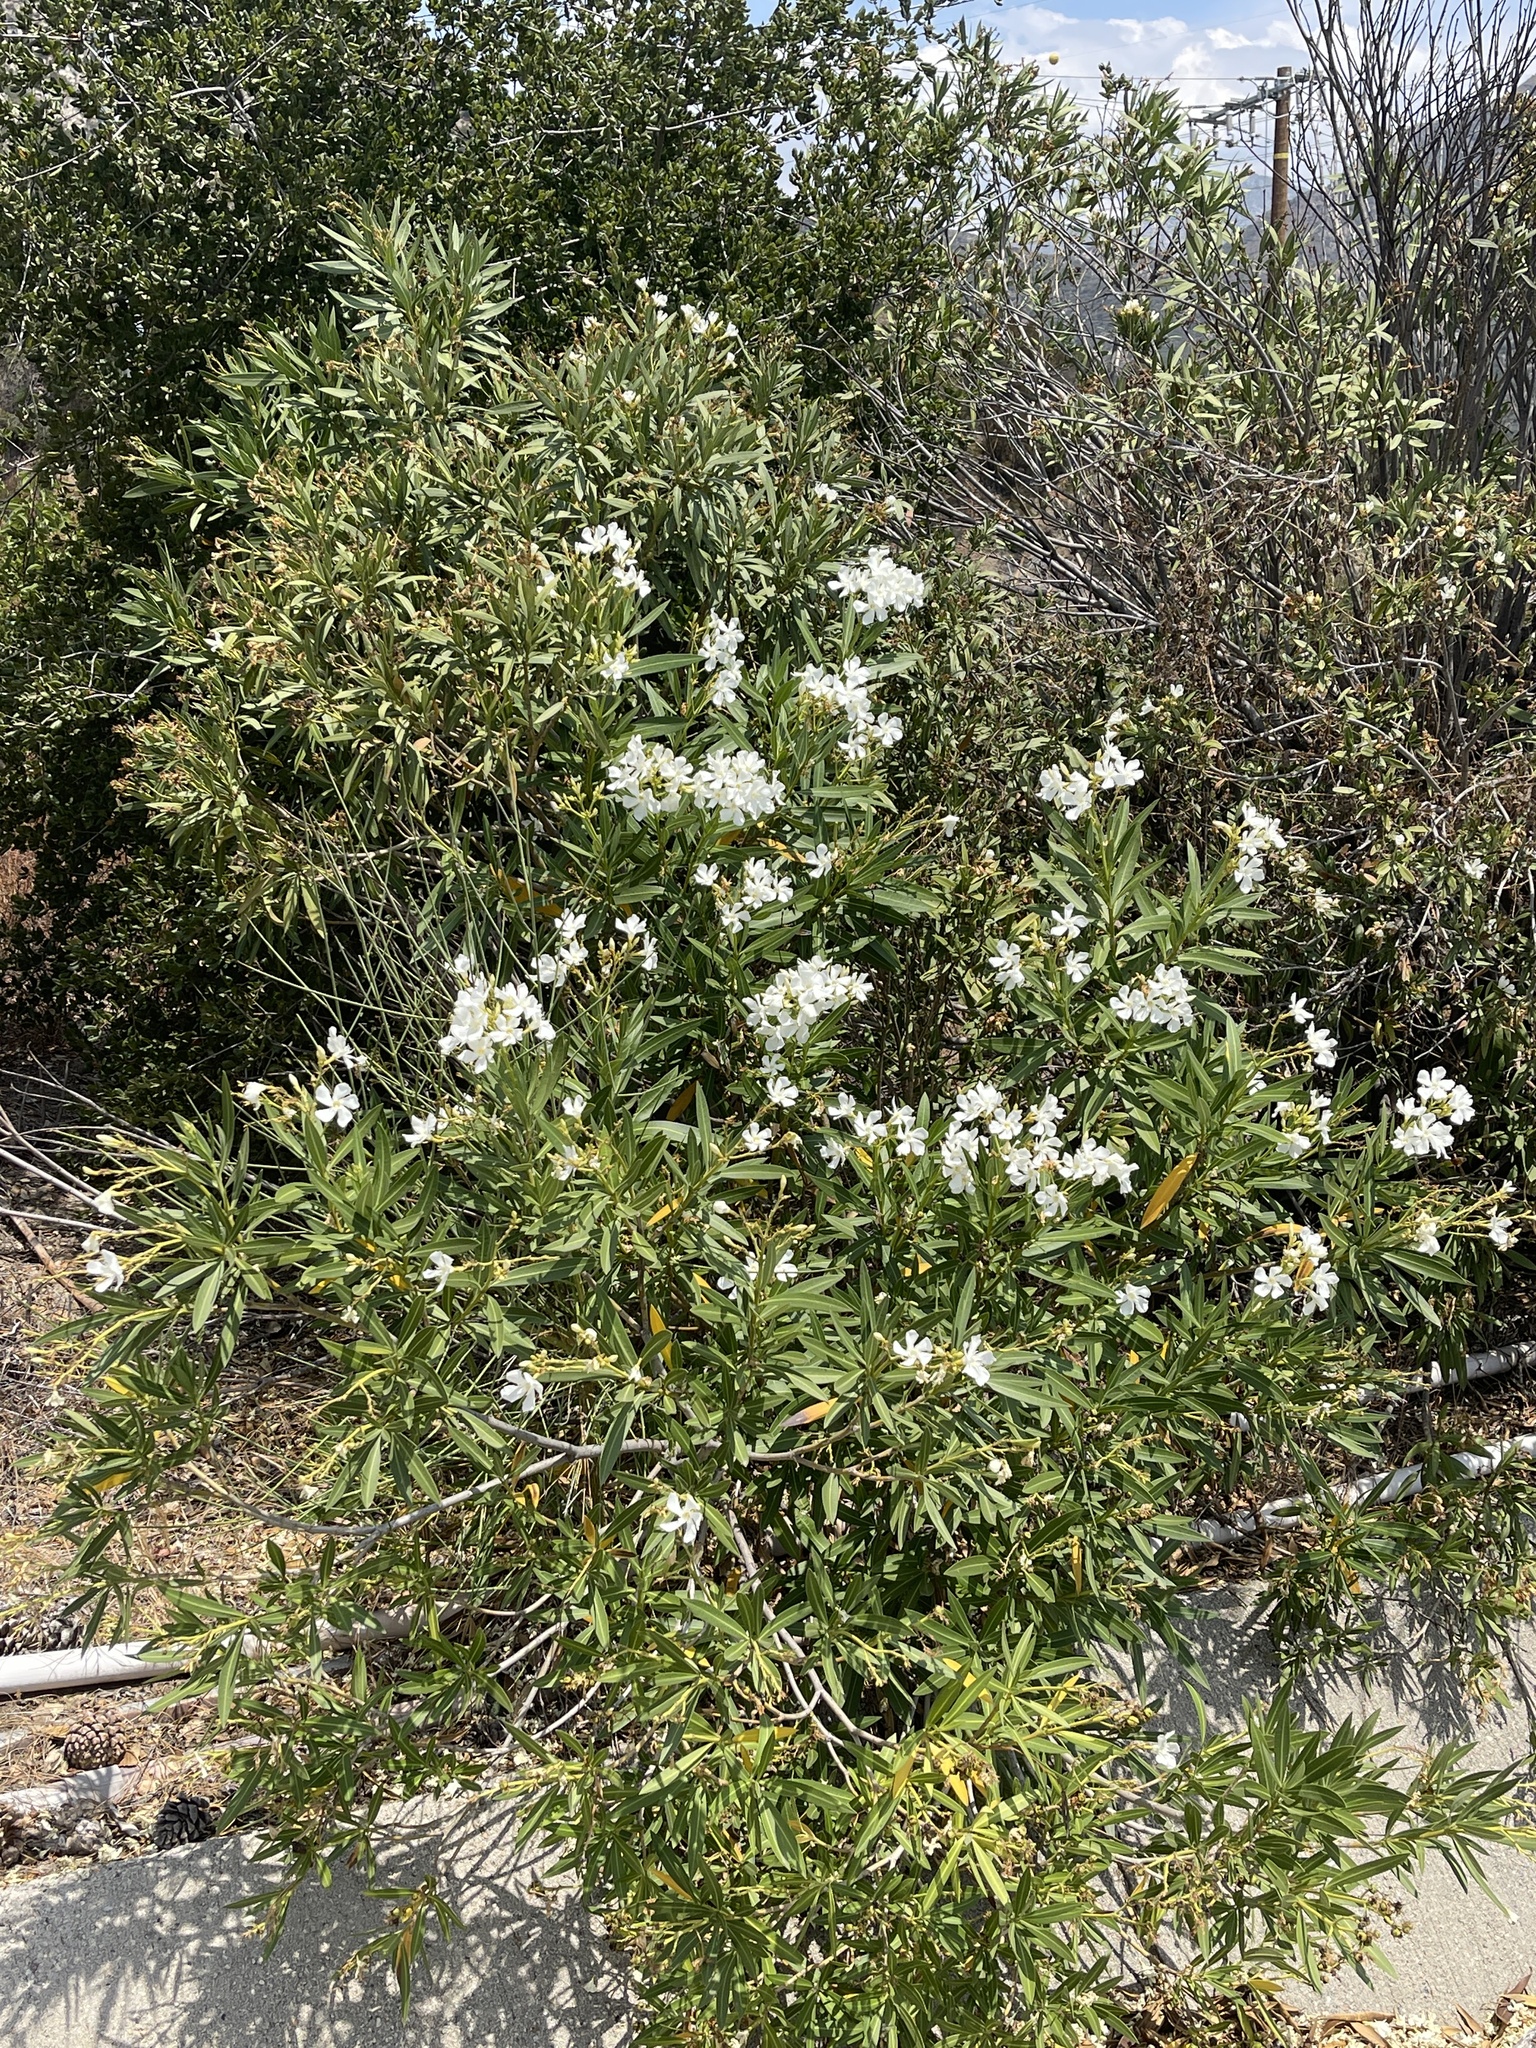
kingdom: Plantae
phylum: Tracheophyta
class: Magnoliopsida
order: Gentianales
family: Apocynaceae
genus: Nerium
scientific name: Nerium oleander
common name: Oleander
